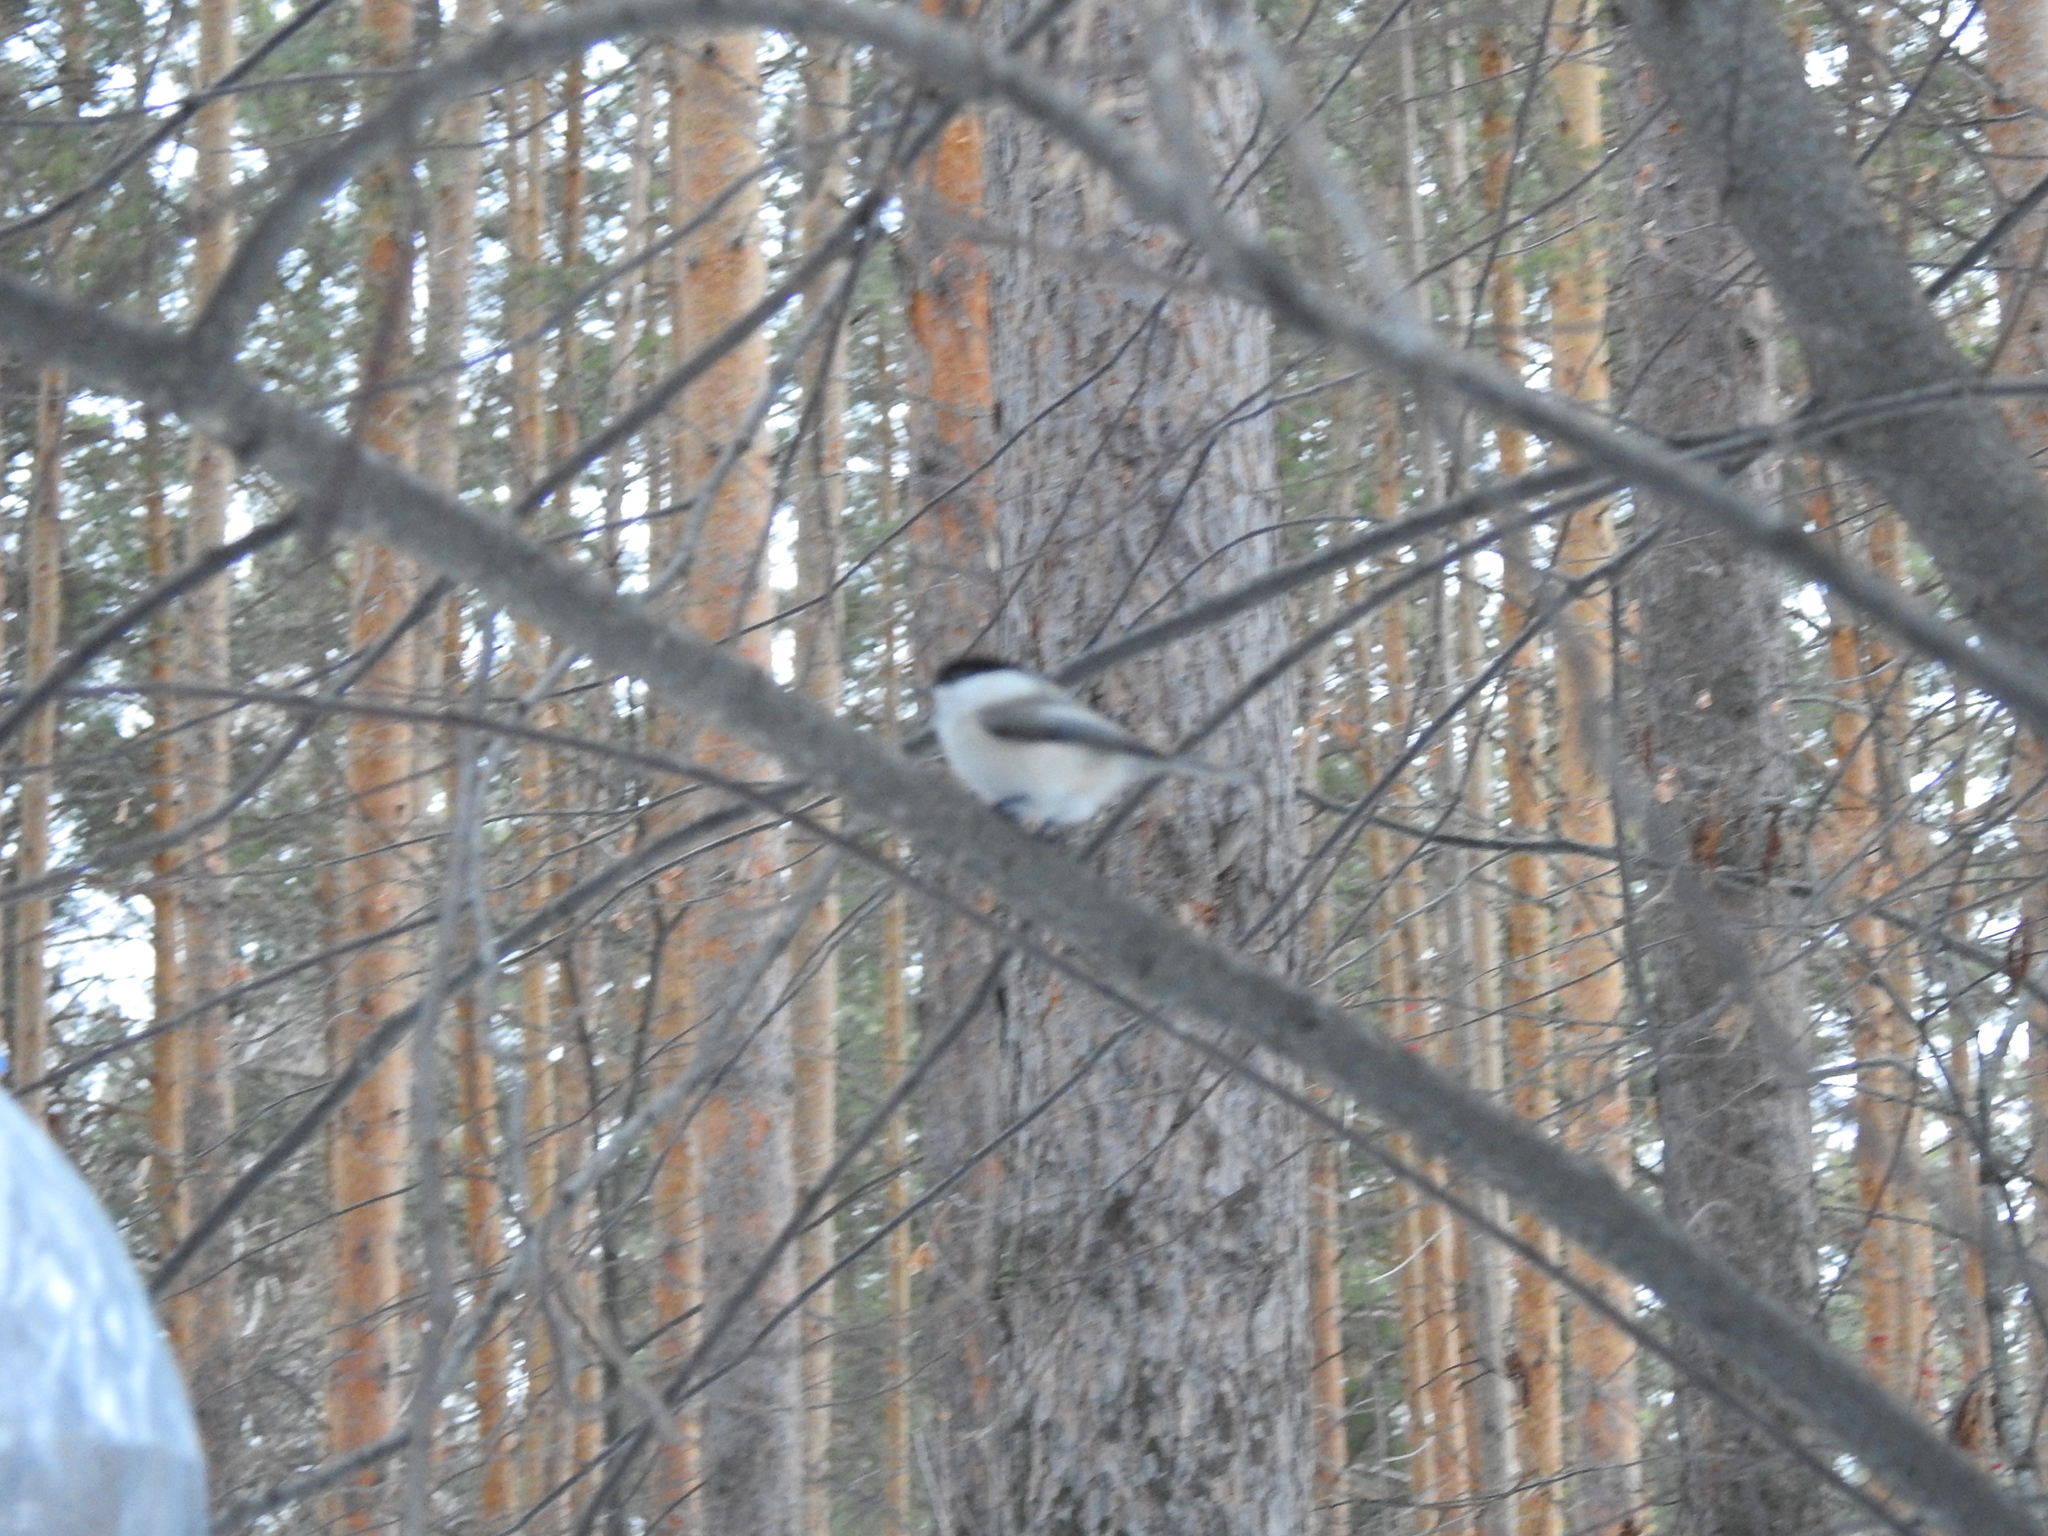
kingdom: Animalia
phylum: Chordata
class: Aves
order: Passeriformes
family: Paridae
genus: Poecile
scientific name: Poecile montanus
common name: Willow tit
